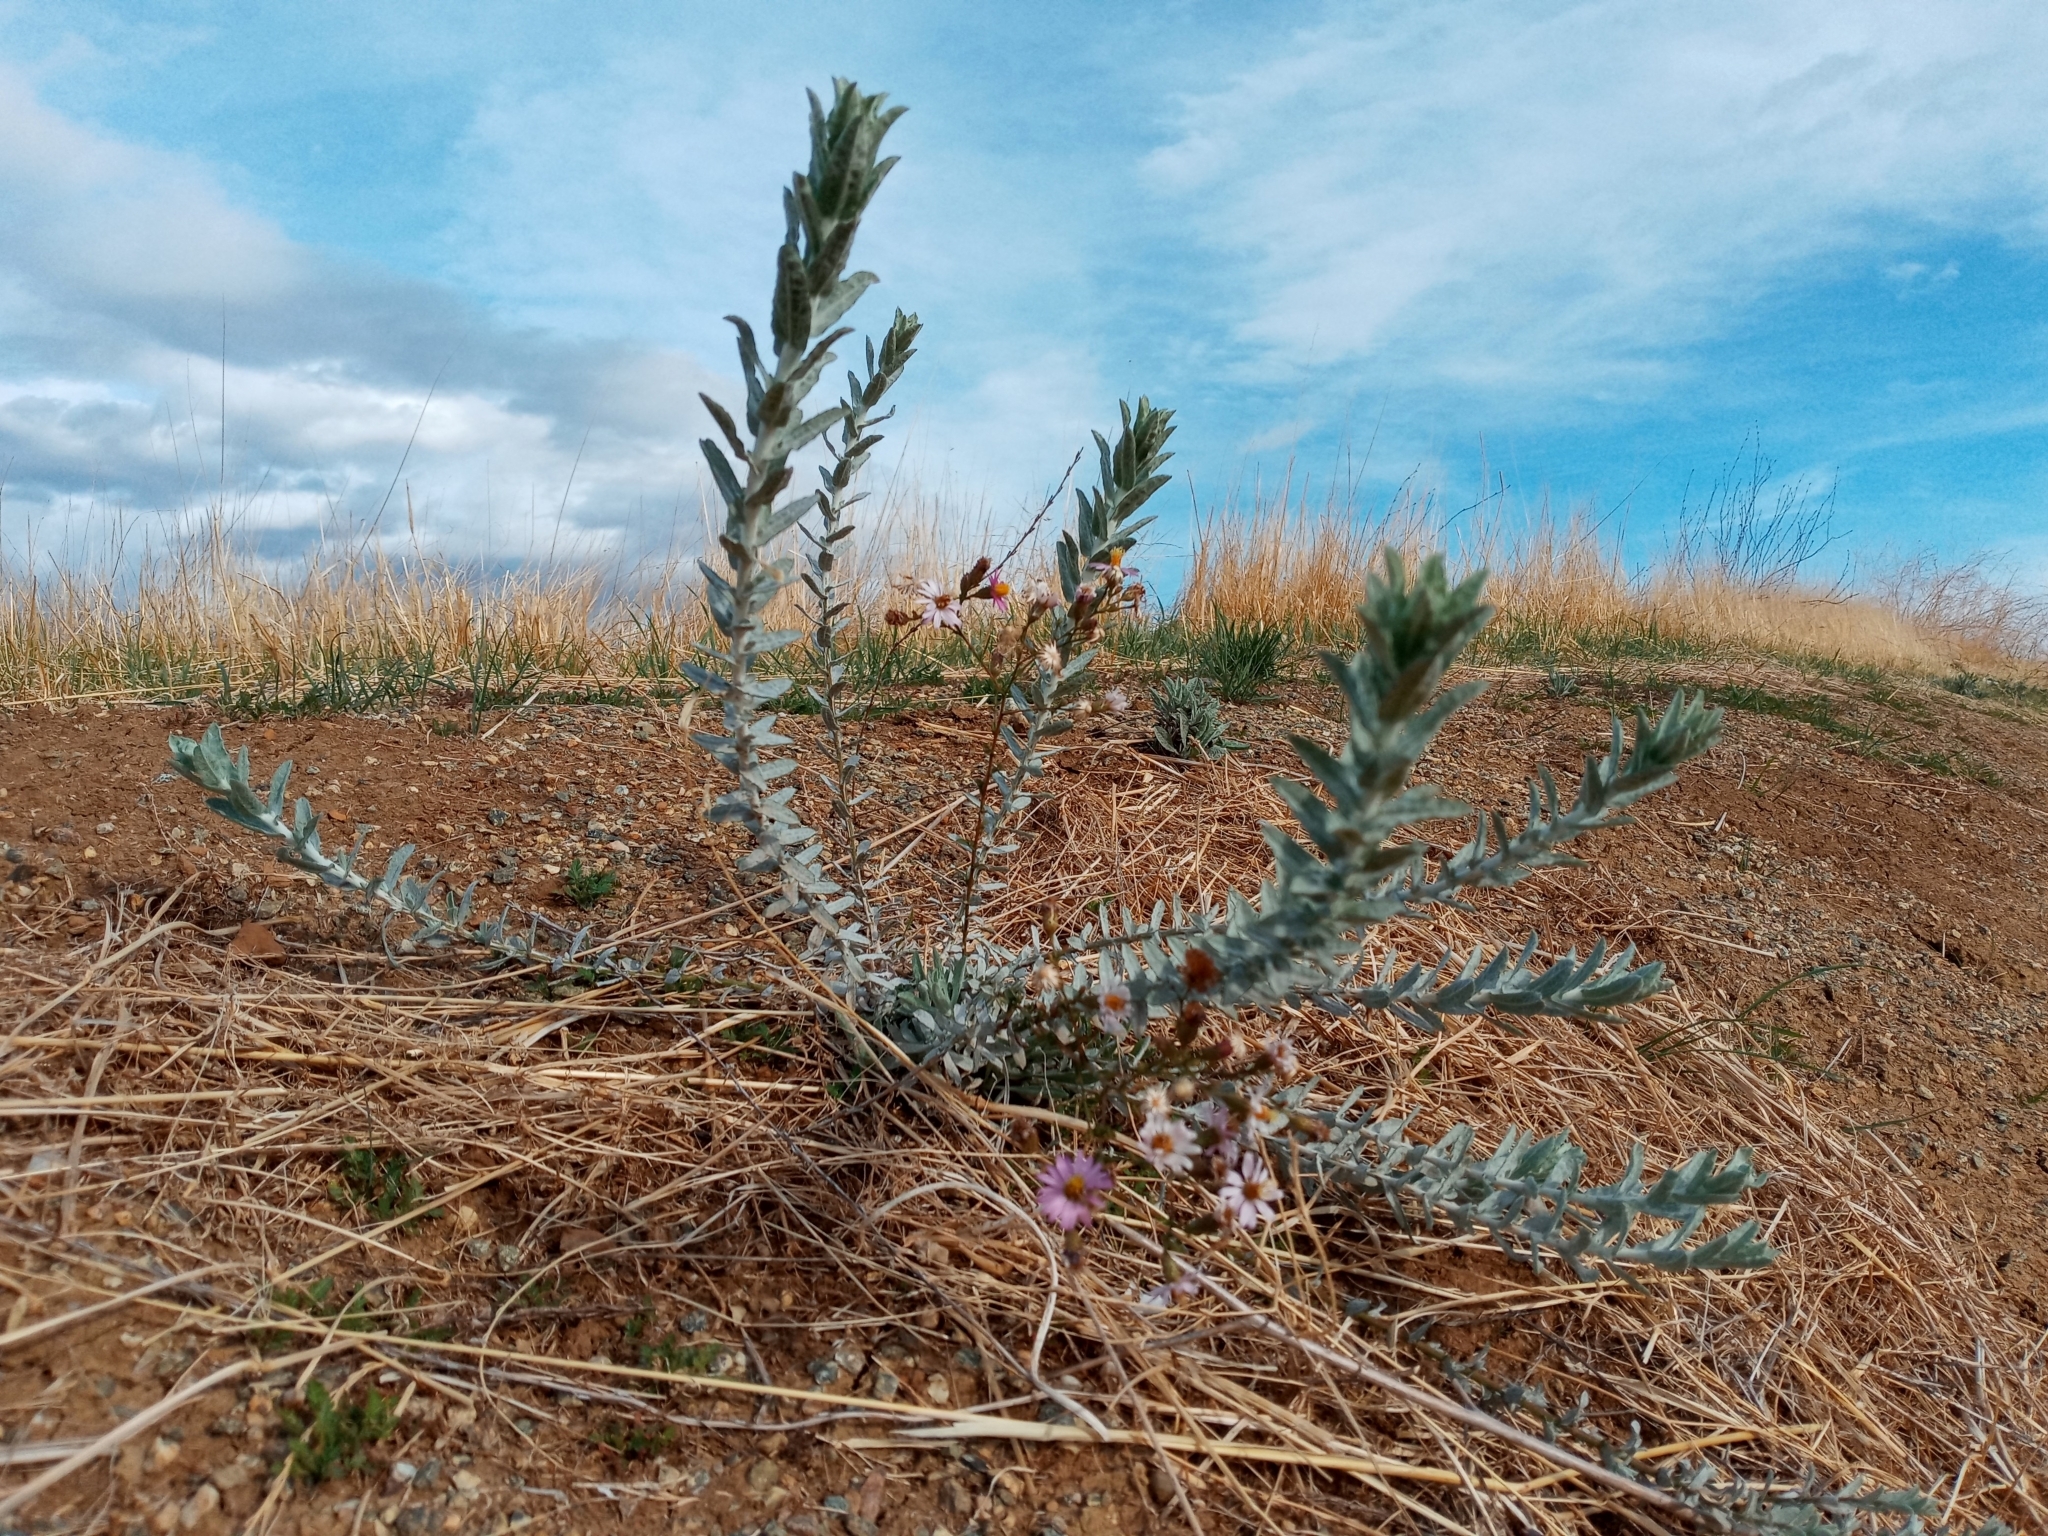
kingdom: Plantae
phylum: Tracheophyta
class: Magnoliopsida
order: Asterales
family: Asteraceae
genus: Corethrogyne
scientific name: Corethrogyne filaginifolia
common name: Sand-aster
